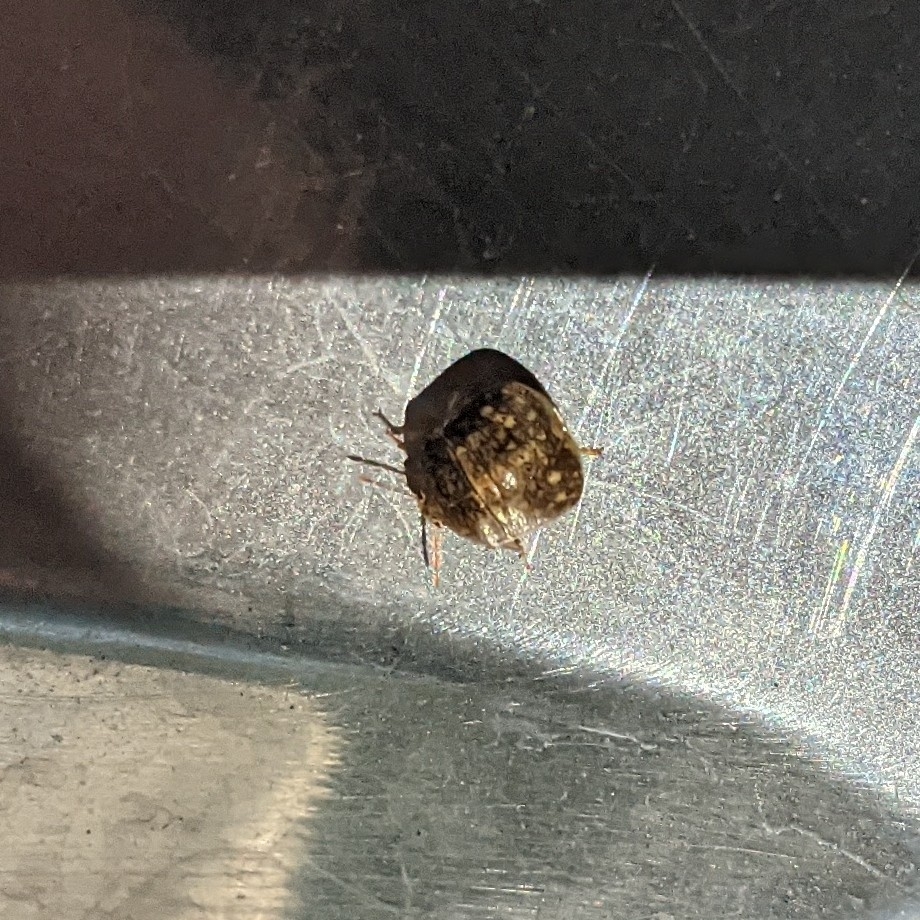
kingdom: Animalia
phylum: Arthropoda
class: Insecta
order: Hemiptera
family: Plataspidae
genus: Megacopta
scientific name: Megacopta cribraria
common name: Bean plataspid
